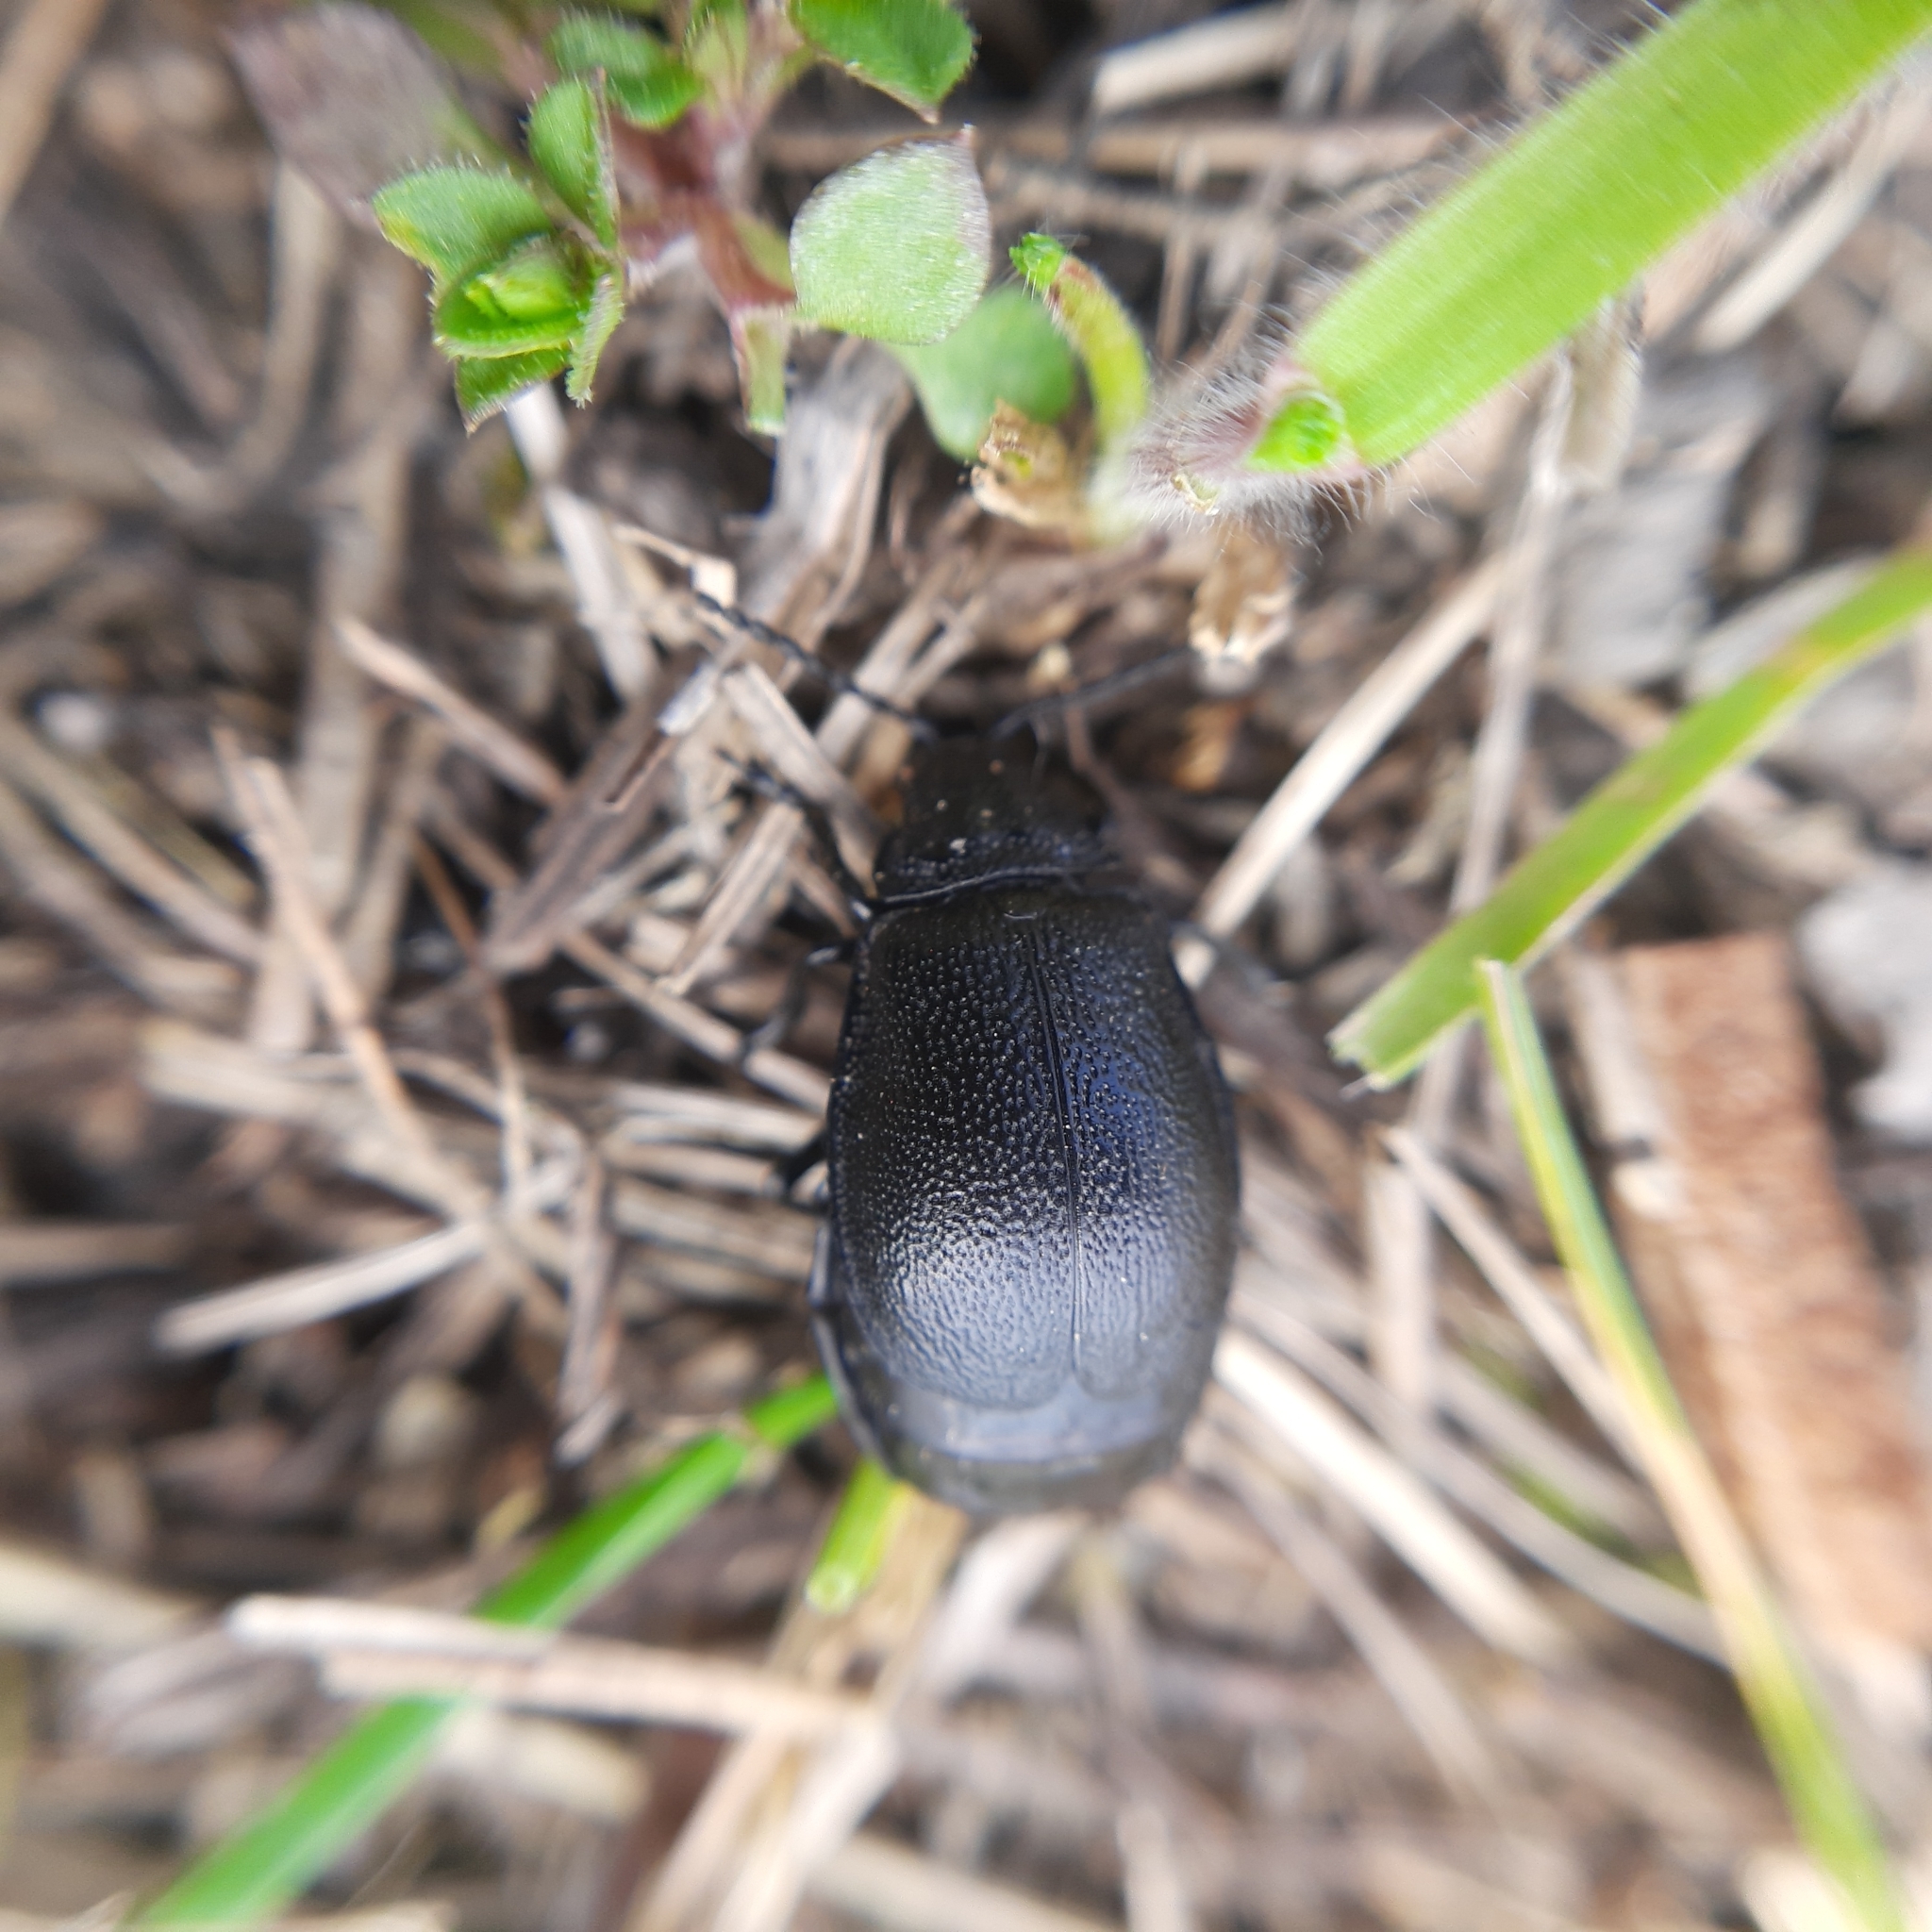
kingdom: Animalia
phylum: Arthropoda
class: Insecta
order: Coleoptera
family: Chrysomelidae
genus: Galeruca
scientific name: Galeruca tanaceti
